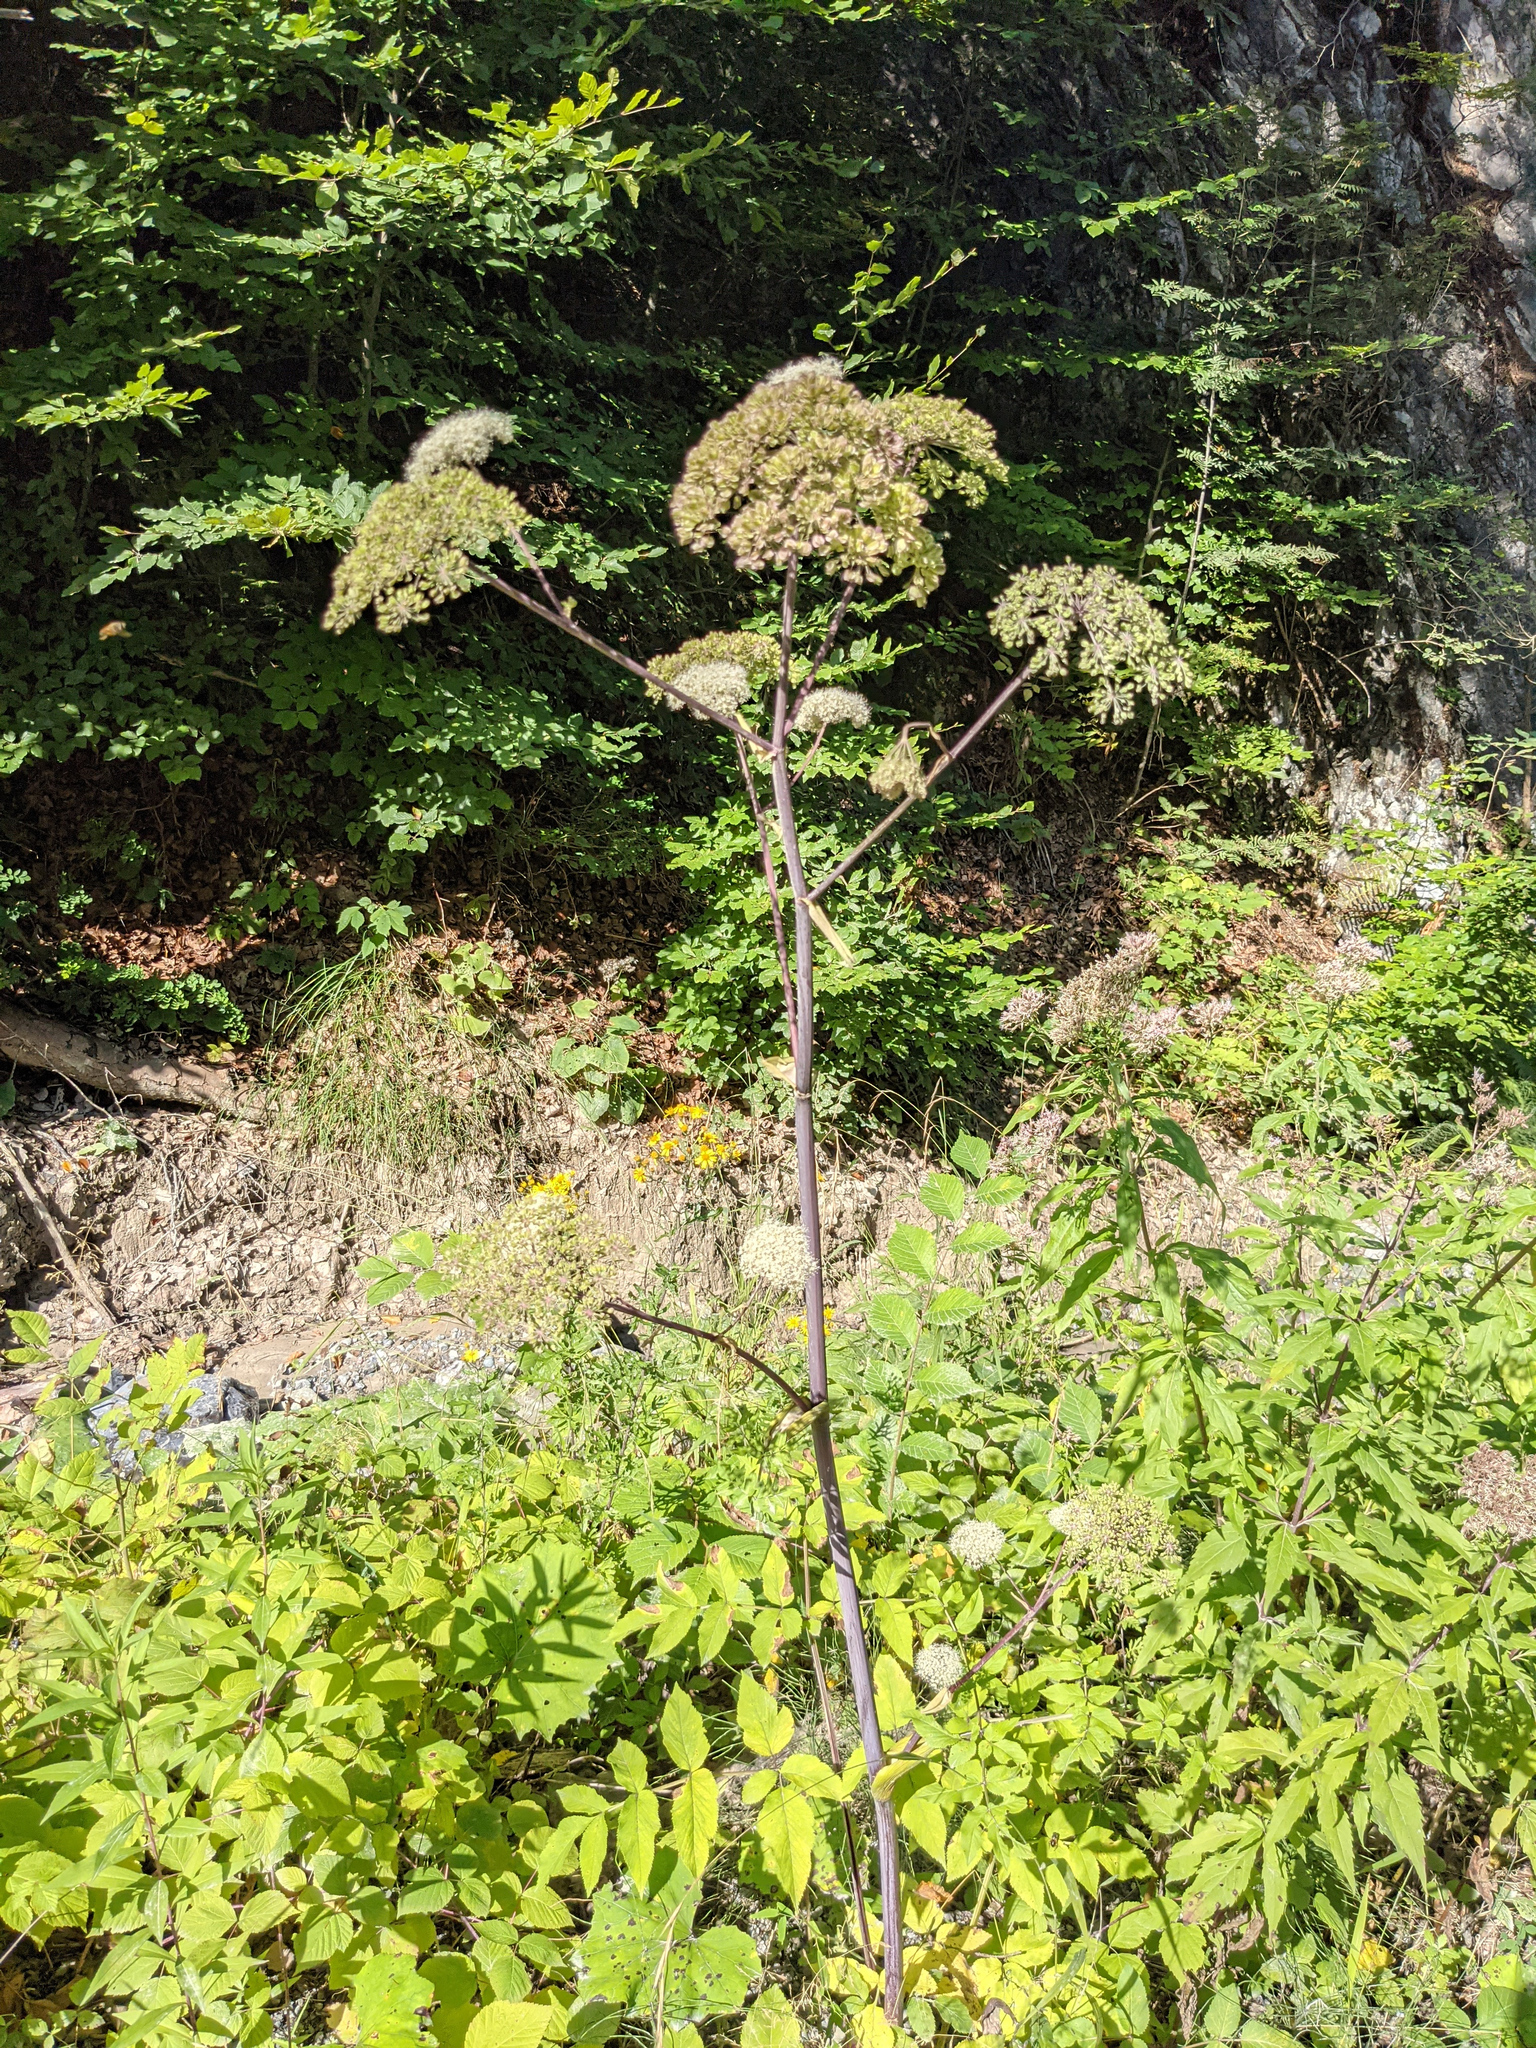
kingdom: Plantae
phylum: Tracheophyta
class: Magnoliopsida
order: Apiales
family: Apiaceae
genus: Angelica
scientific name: Angelica sylvestris
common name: Wild angelica
